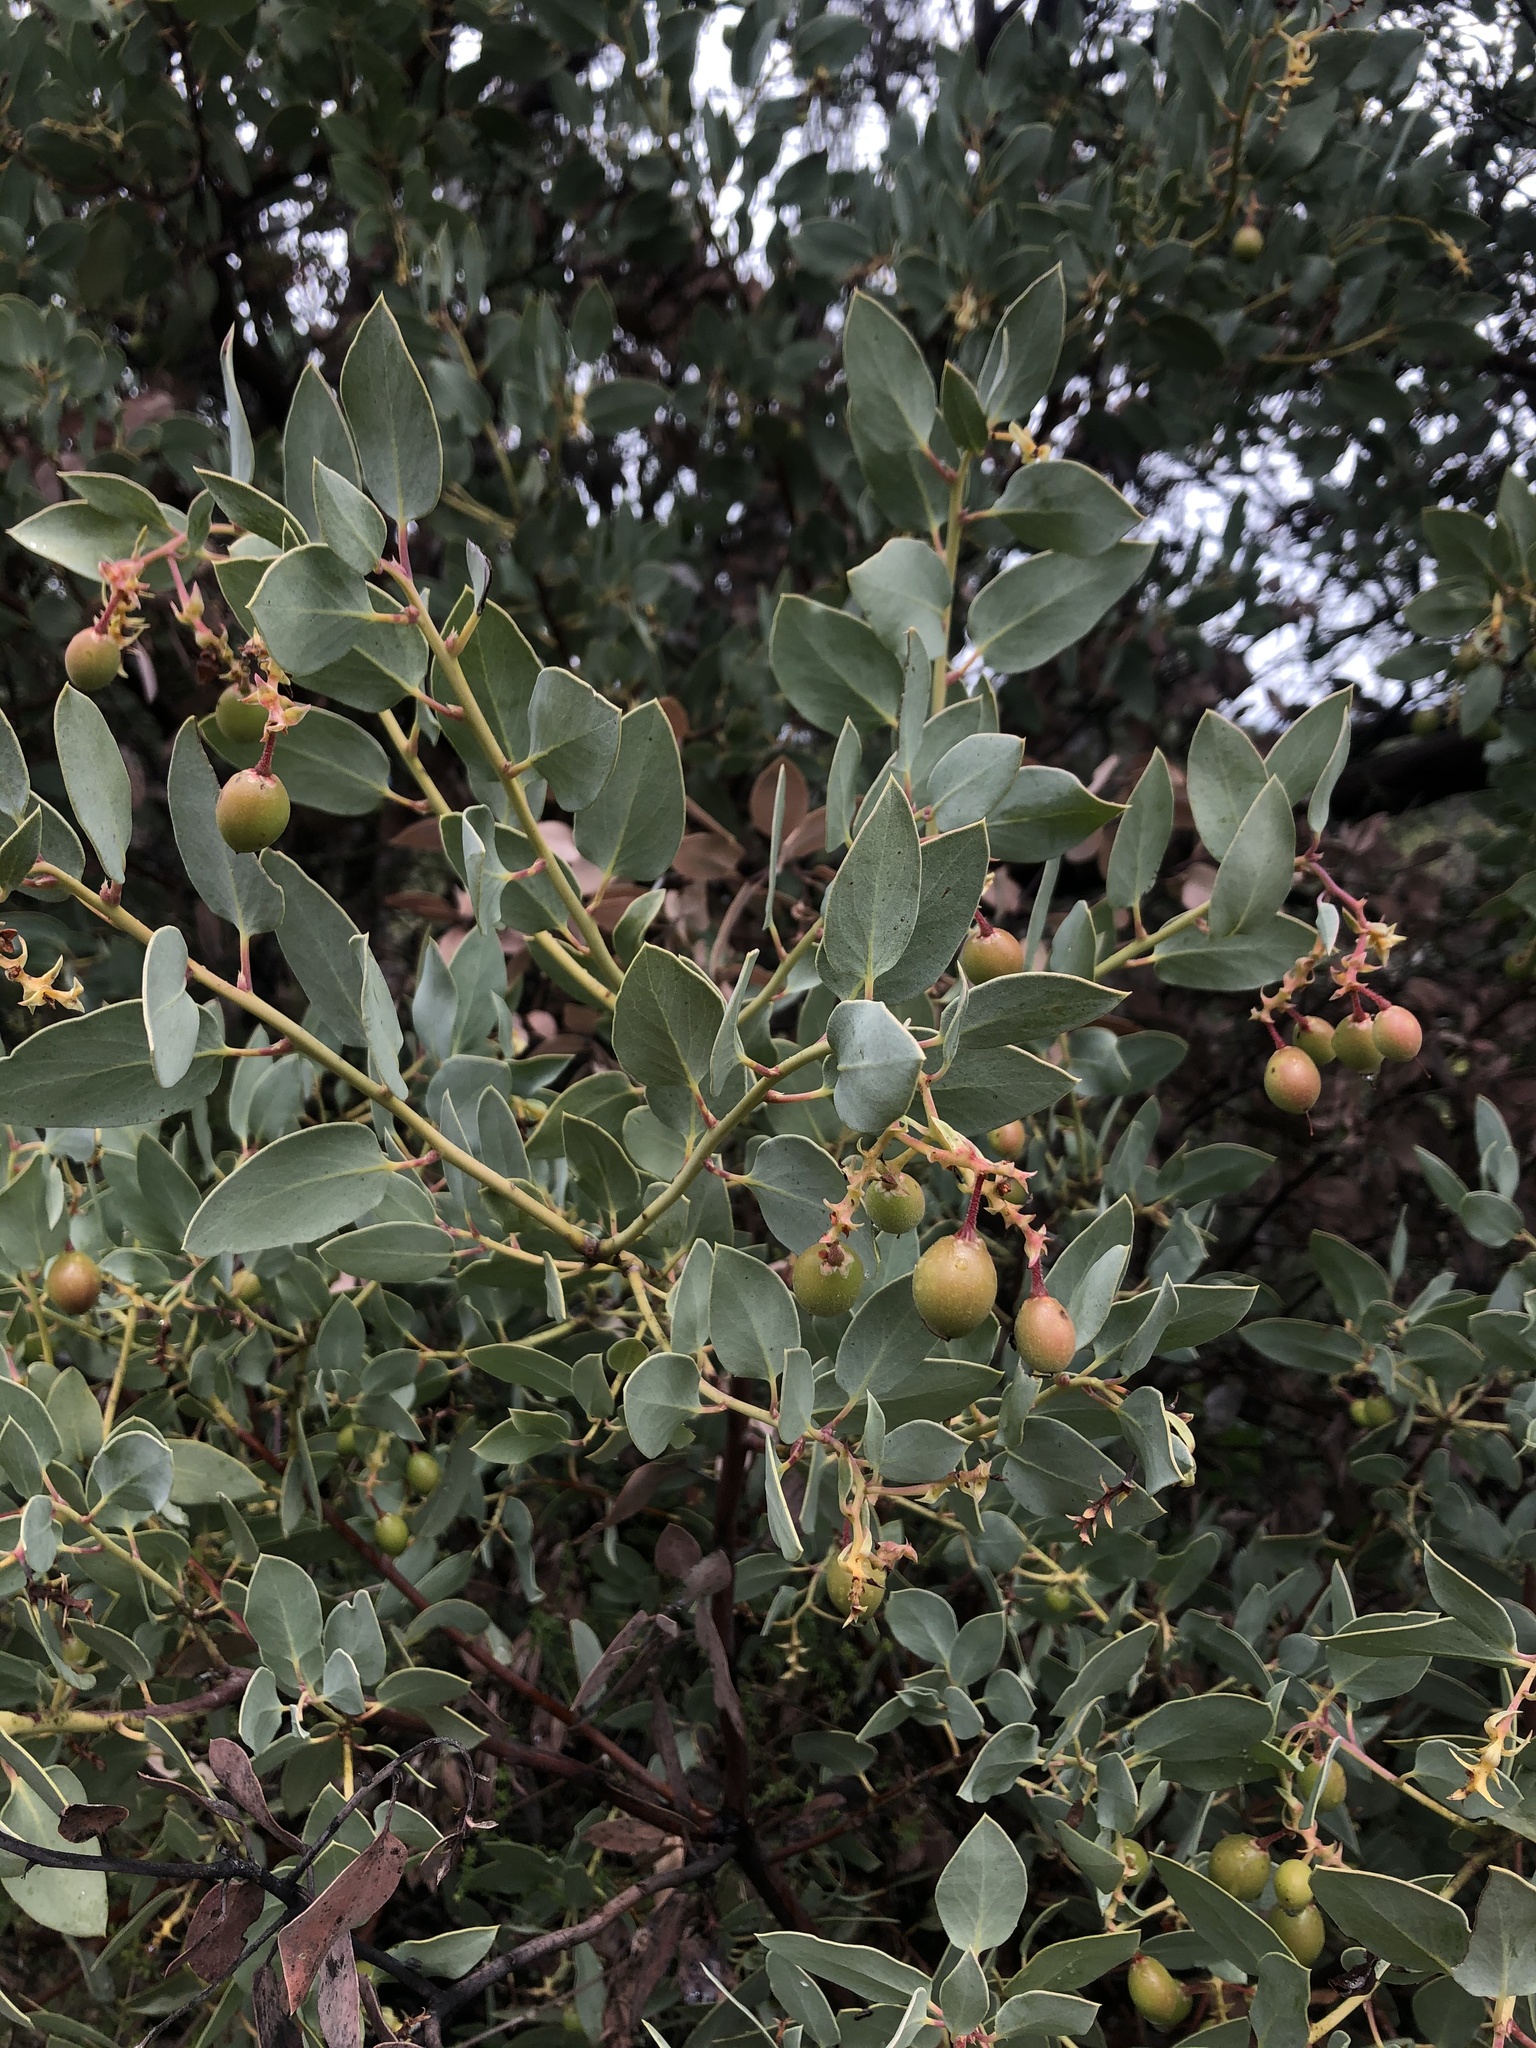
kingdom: Plantae
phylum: Tracheophyta
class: Magnoliopsida
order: Ericales
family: Ericaceae
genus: Arctostaphylos
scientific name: Arctostaphylos glauca
